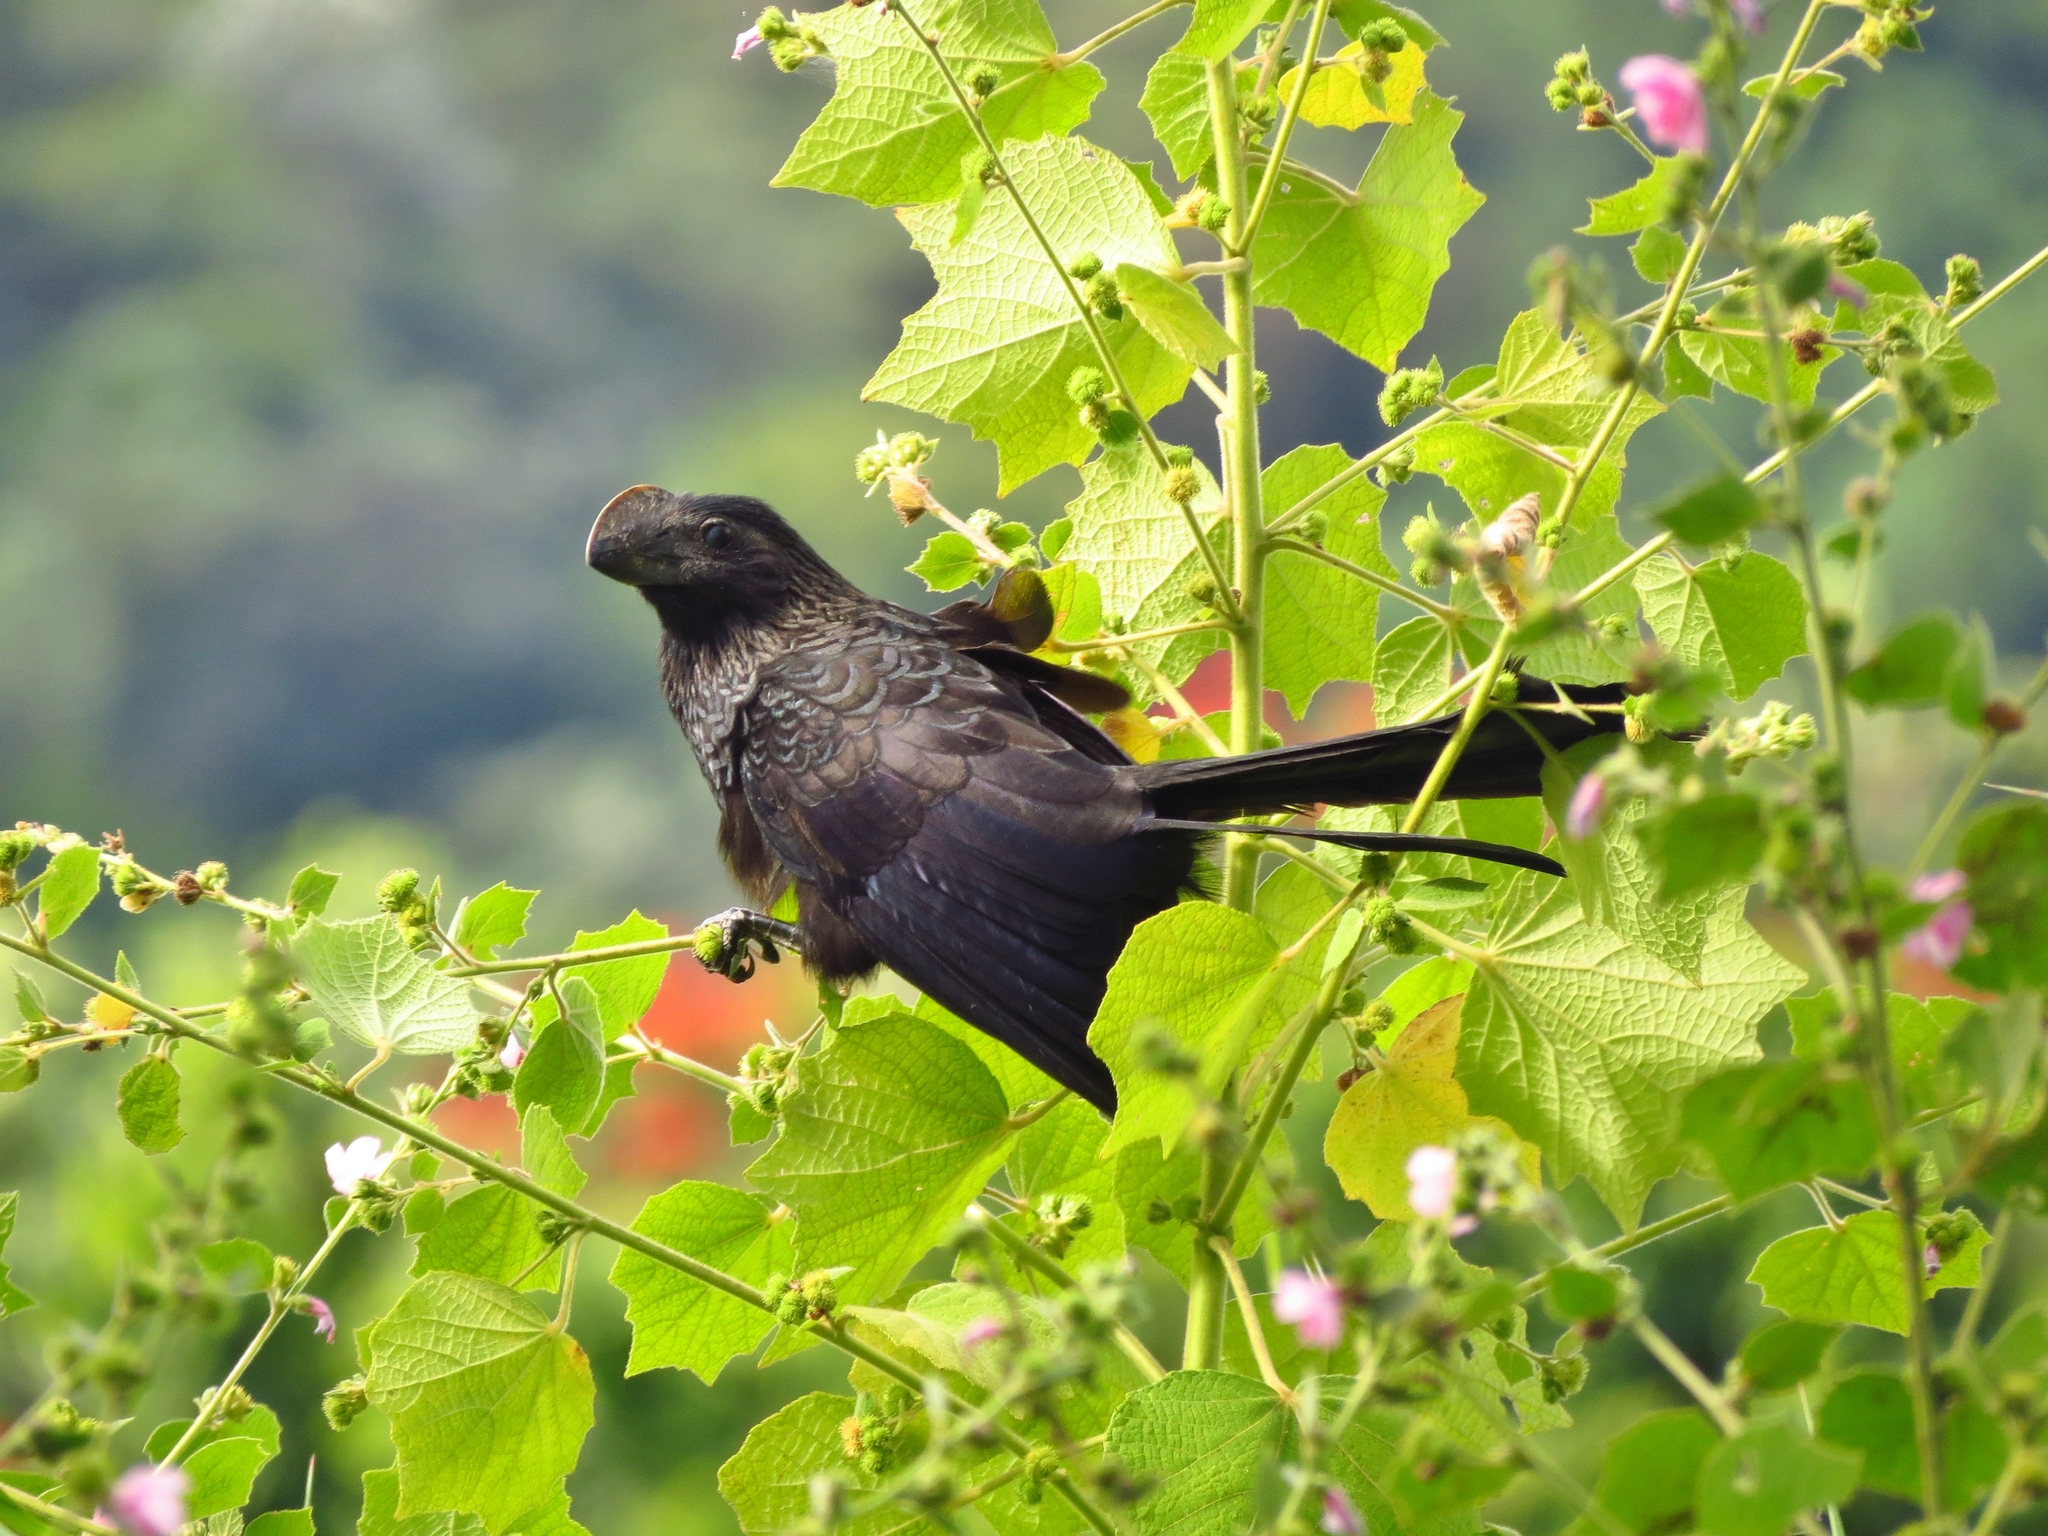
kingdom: Animalia
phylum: Chordata
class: Aves
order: Cuculiformes
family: Cuculidae
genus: Crotophaga
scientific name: Crotophaga ani
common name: Smooth-billed ani
